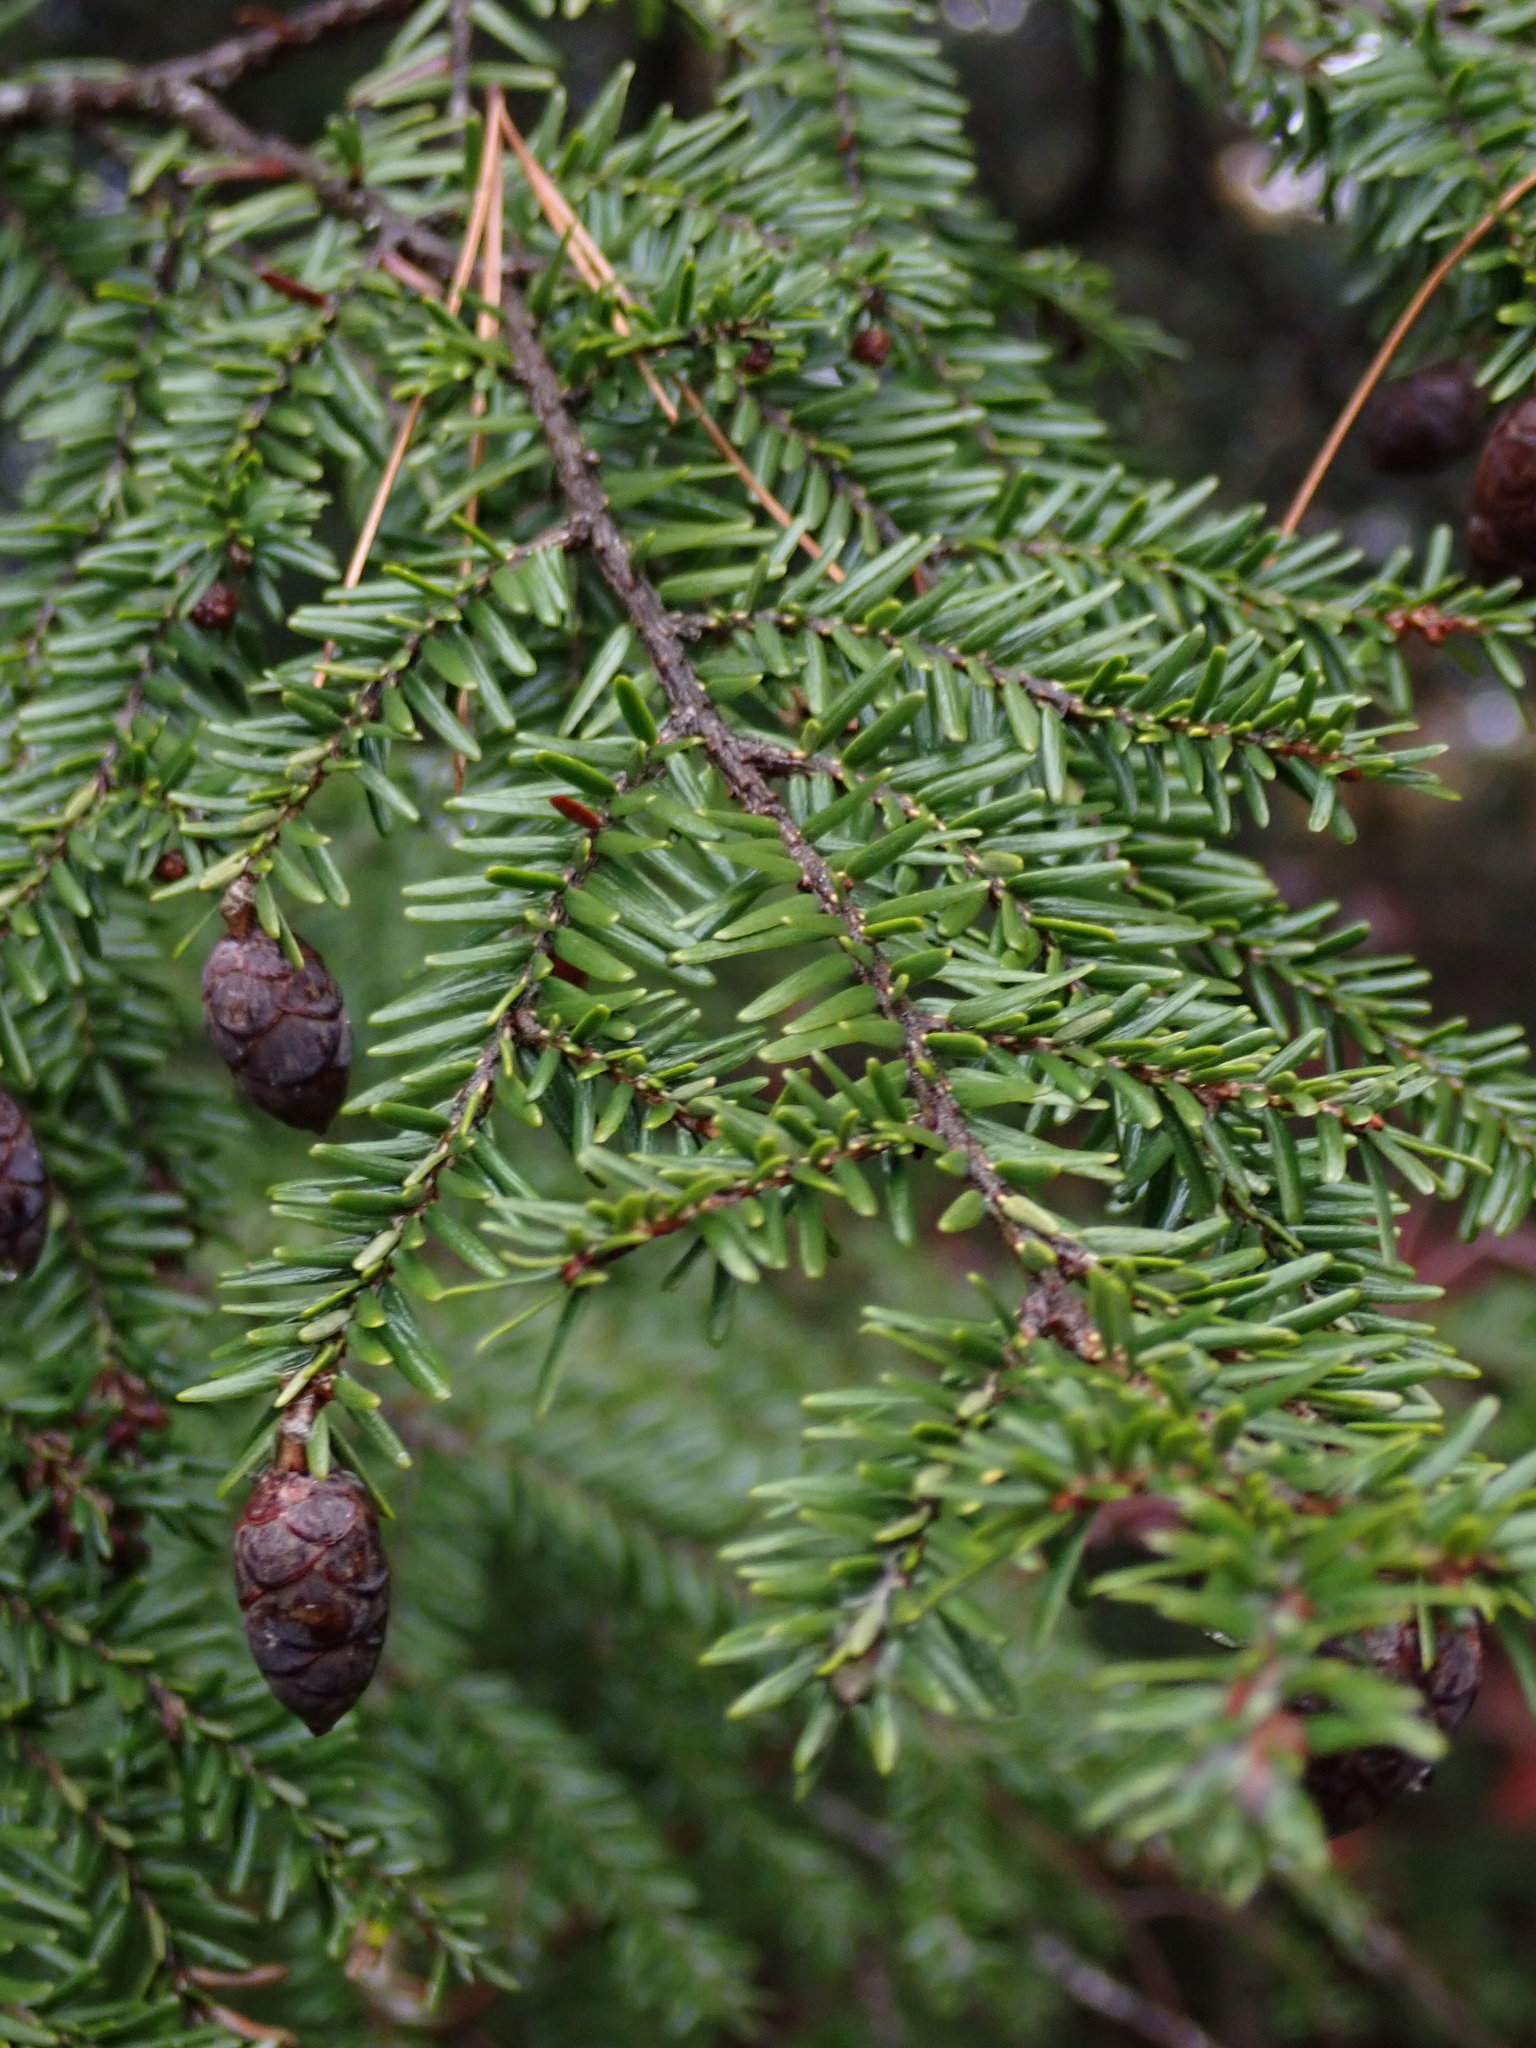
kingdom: Plantae
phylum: Tracheophyta
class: Pinopsida
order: Pinales
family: Pinaceae
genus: Tsuga
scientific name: Tsuga canadensis
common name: Eastern hemlock
